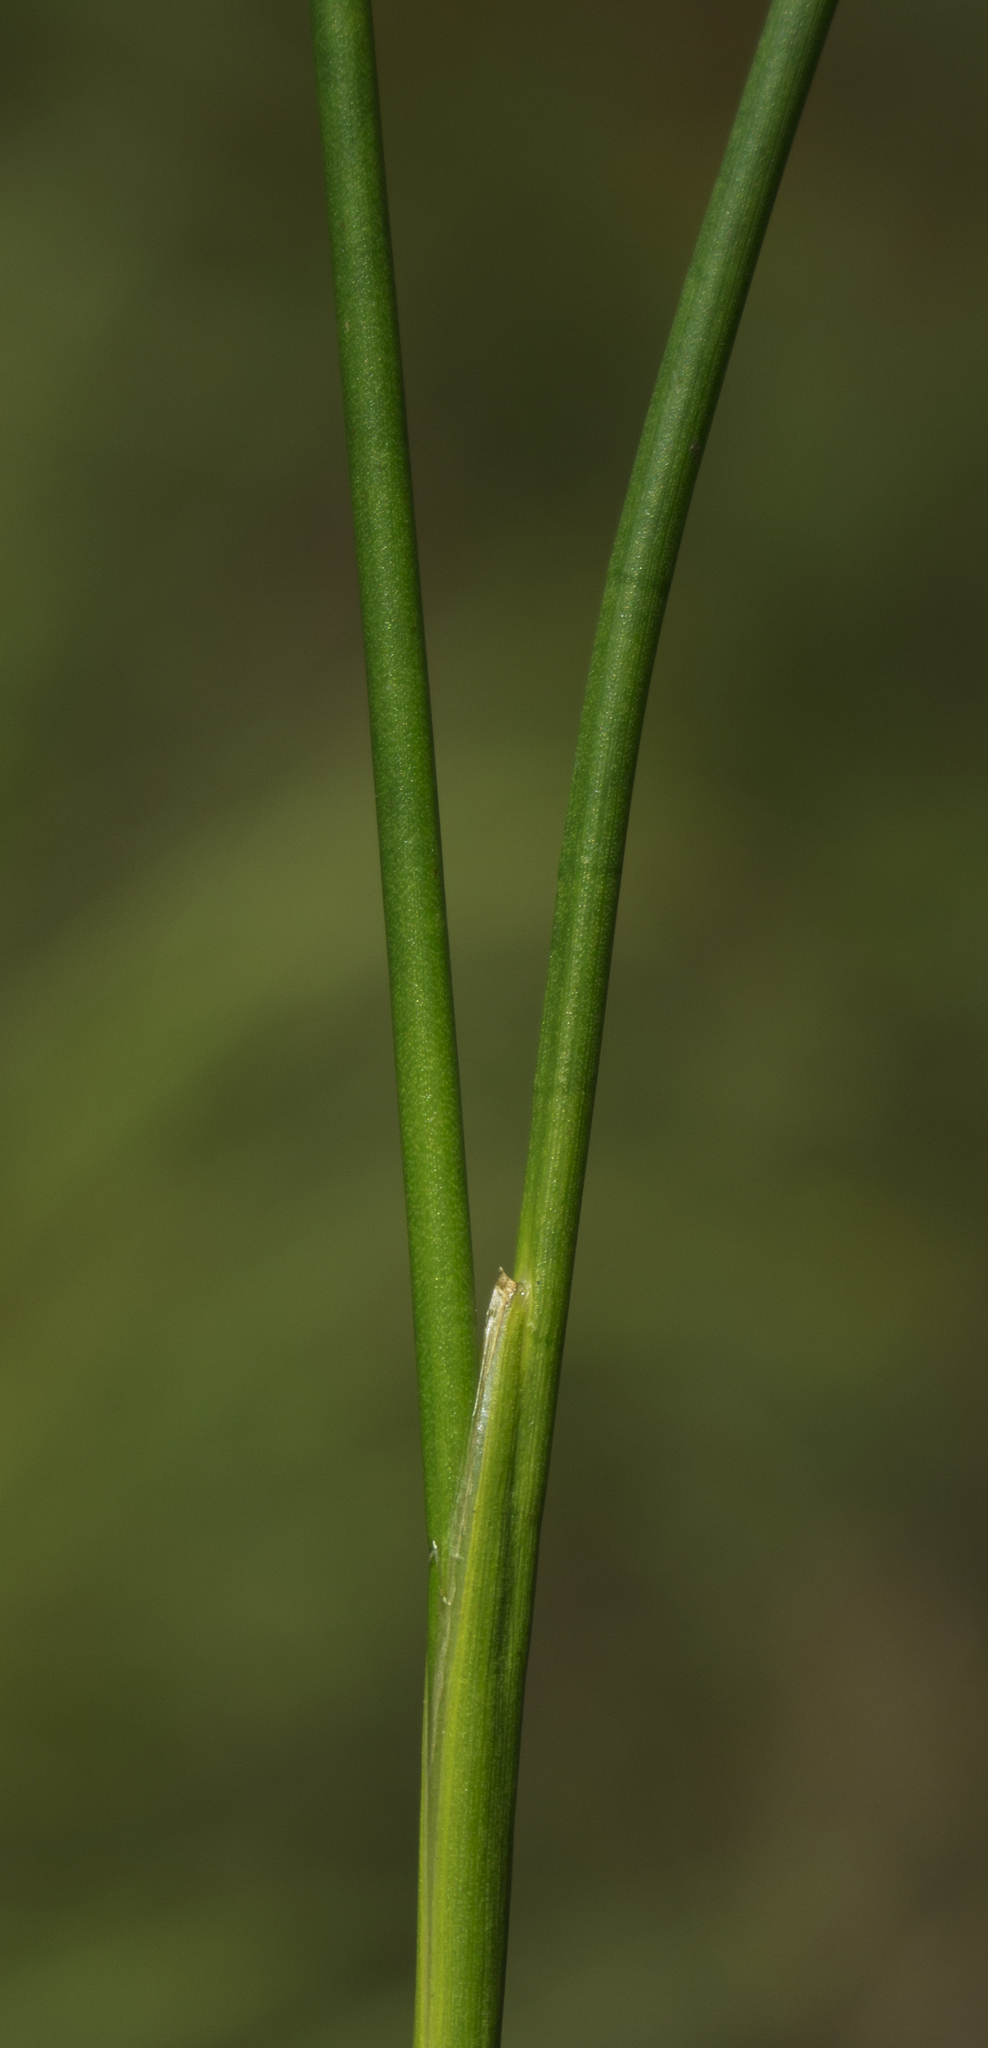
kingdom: Plantae
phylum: Tracheophyta
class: Liliopsida
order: Poales
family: Juncaceae
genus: Juncus
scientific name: Juncus canadensis
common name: Canada rush
